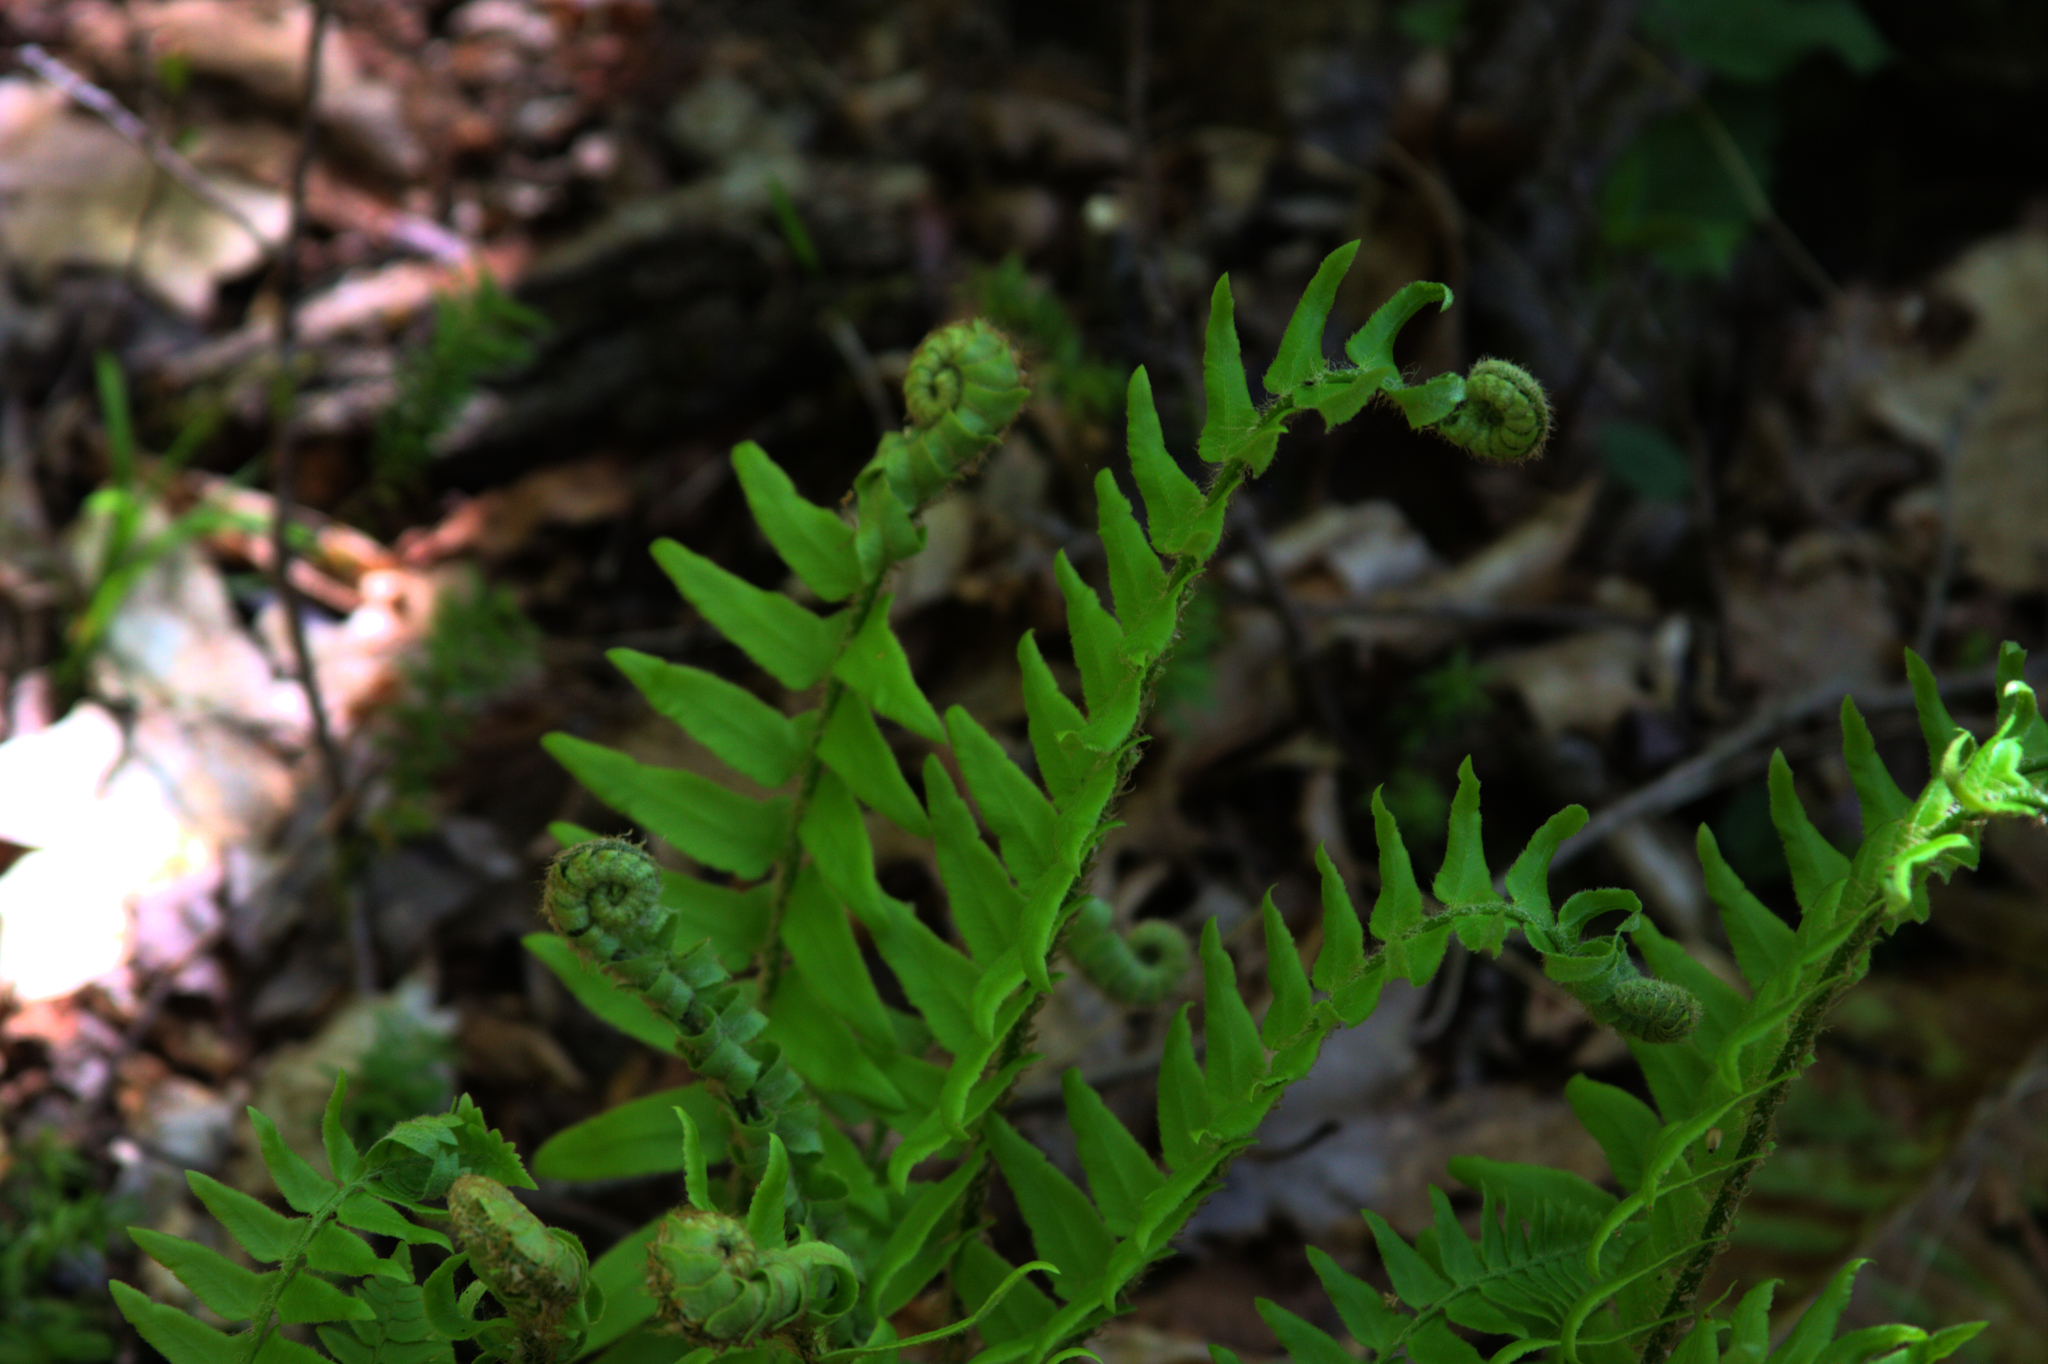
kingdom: Plantae
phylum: Tracheophyta
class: Polypodiopsida
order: Polypodiales
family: Dryopteridaceae
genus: Polystichum
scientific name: Polystichum acrostichoides
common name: Christmas fern
